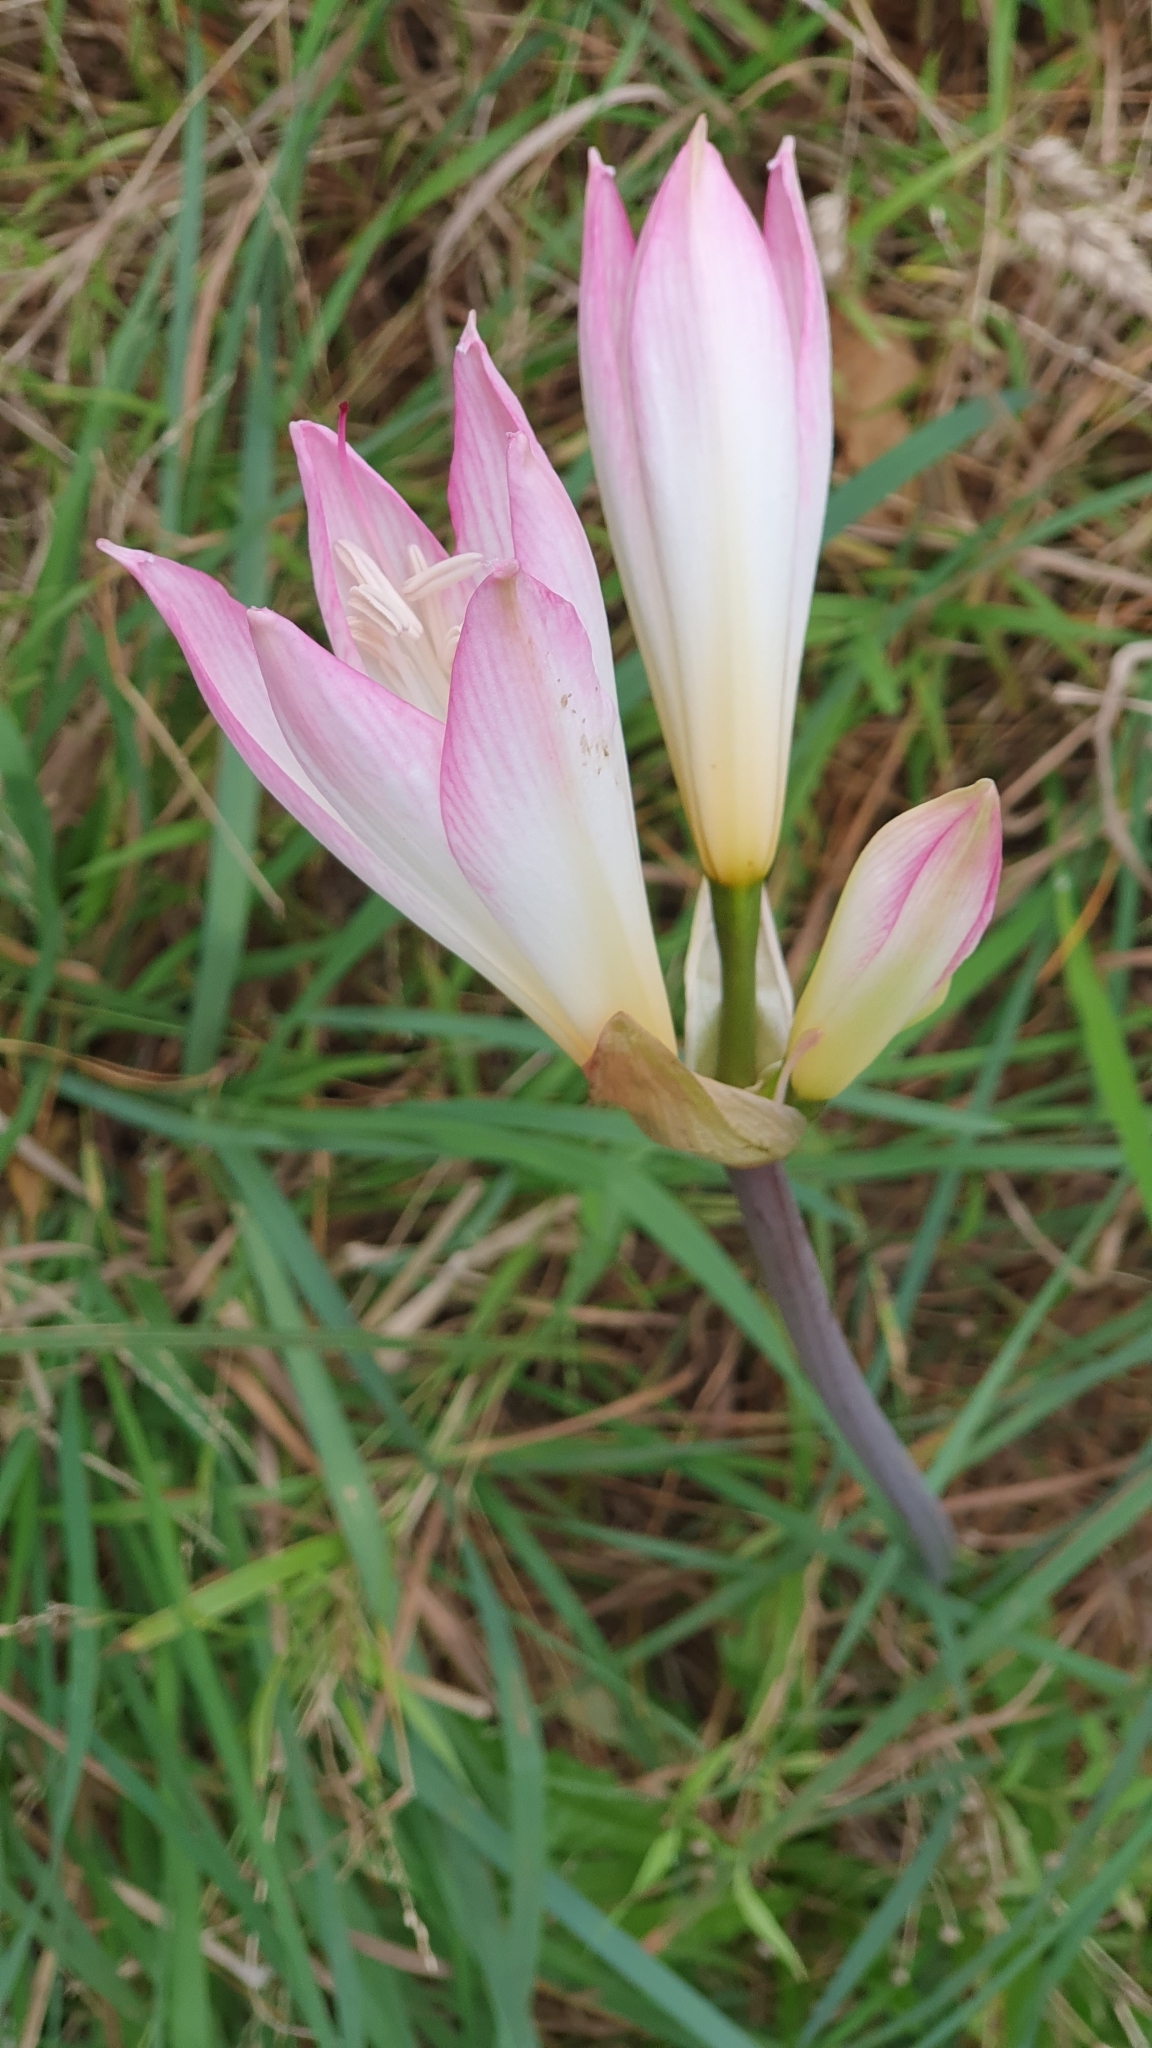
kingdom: Plantae
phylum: Tracheophyta
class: Liliopsida
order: Asparagales
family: Amaryllidaceae
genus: Amaryllis
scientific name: Amaryllis belladonna
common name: Jersey lily
